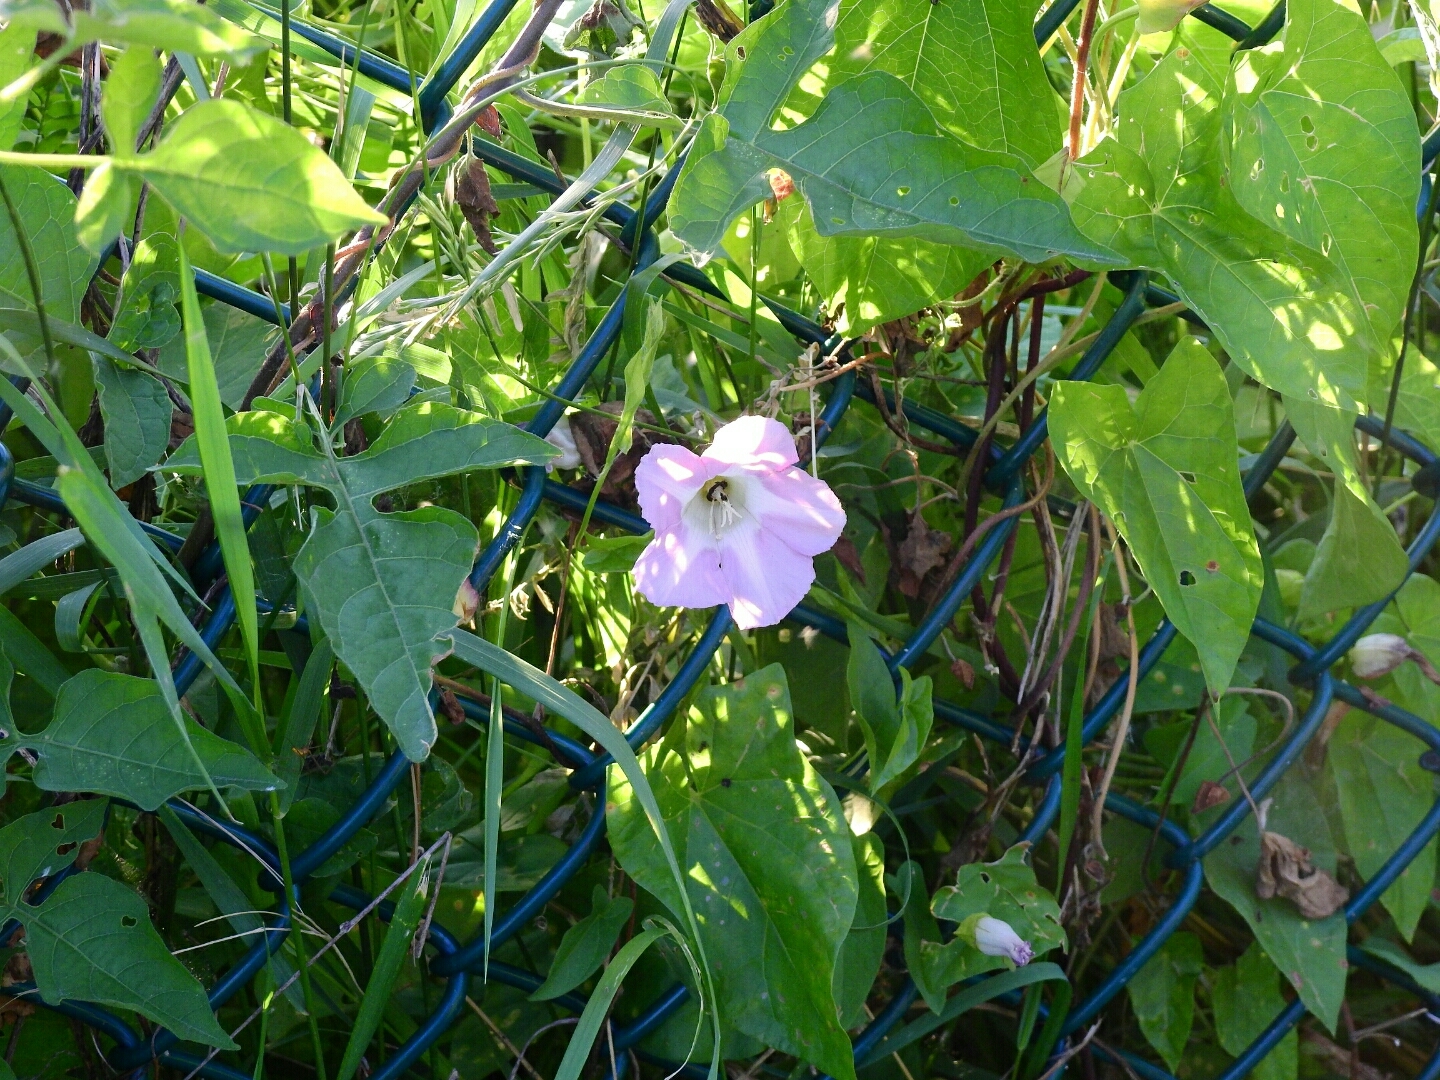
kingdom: Plantae
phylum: Tracheophyta
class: Magnoliopsida
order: Solanales
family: Convolvulaceae
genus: Calystegia
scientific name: Calystegia sepium
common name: Hedge bindweed
